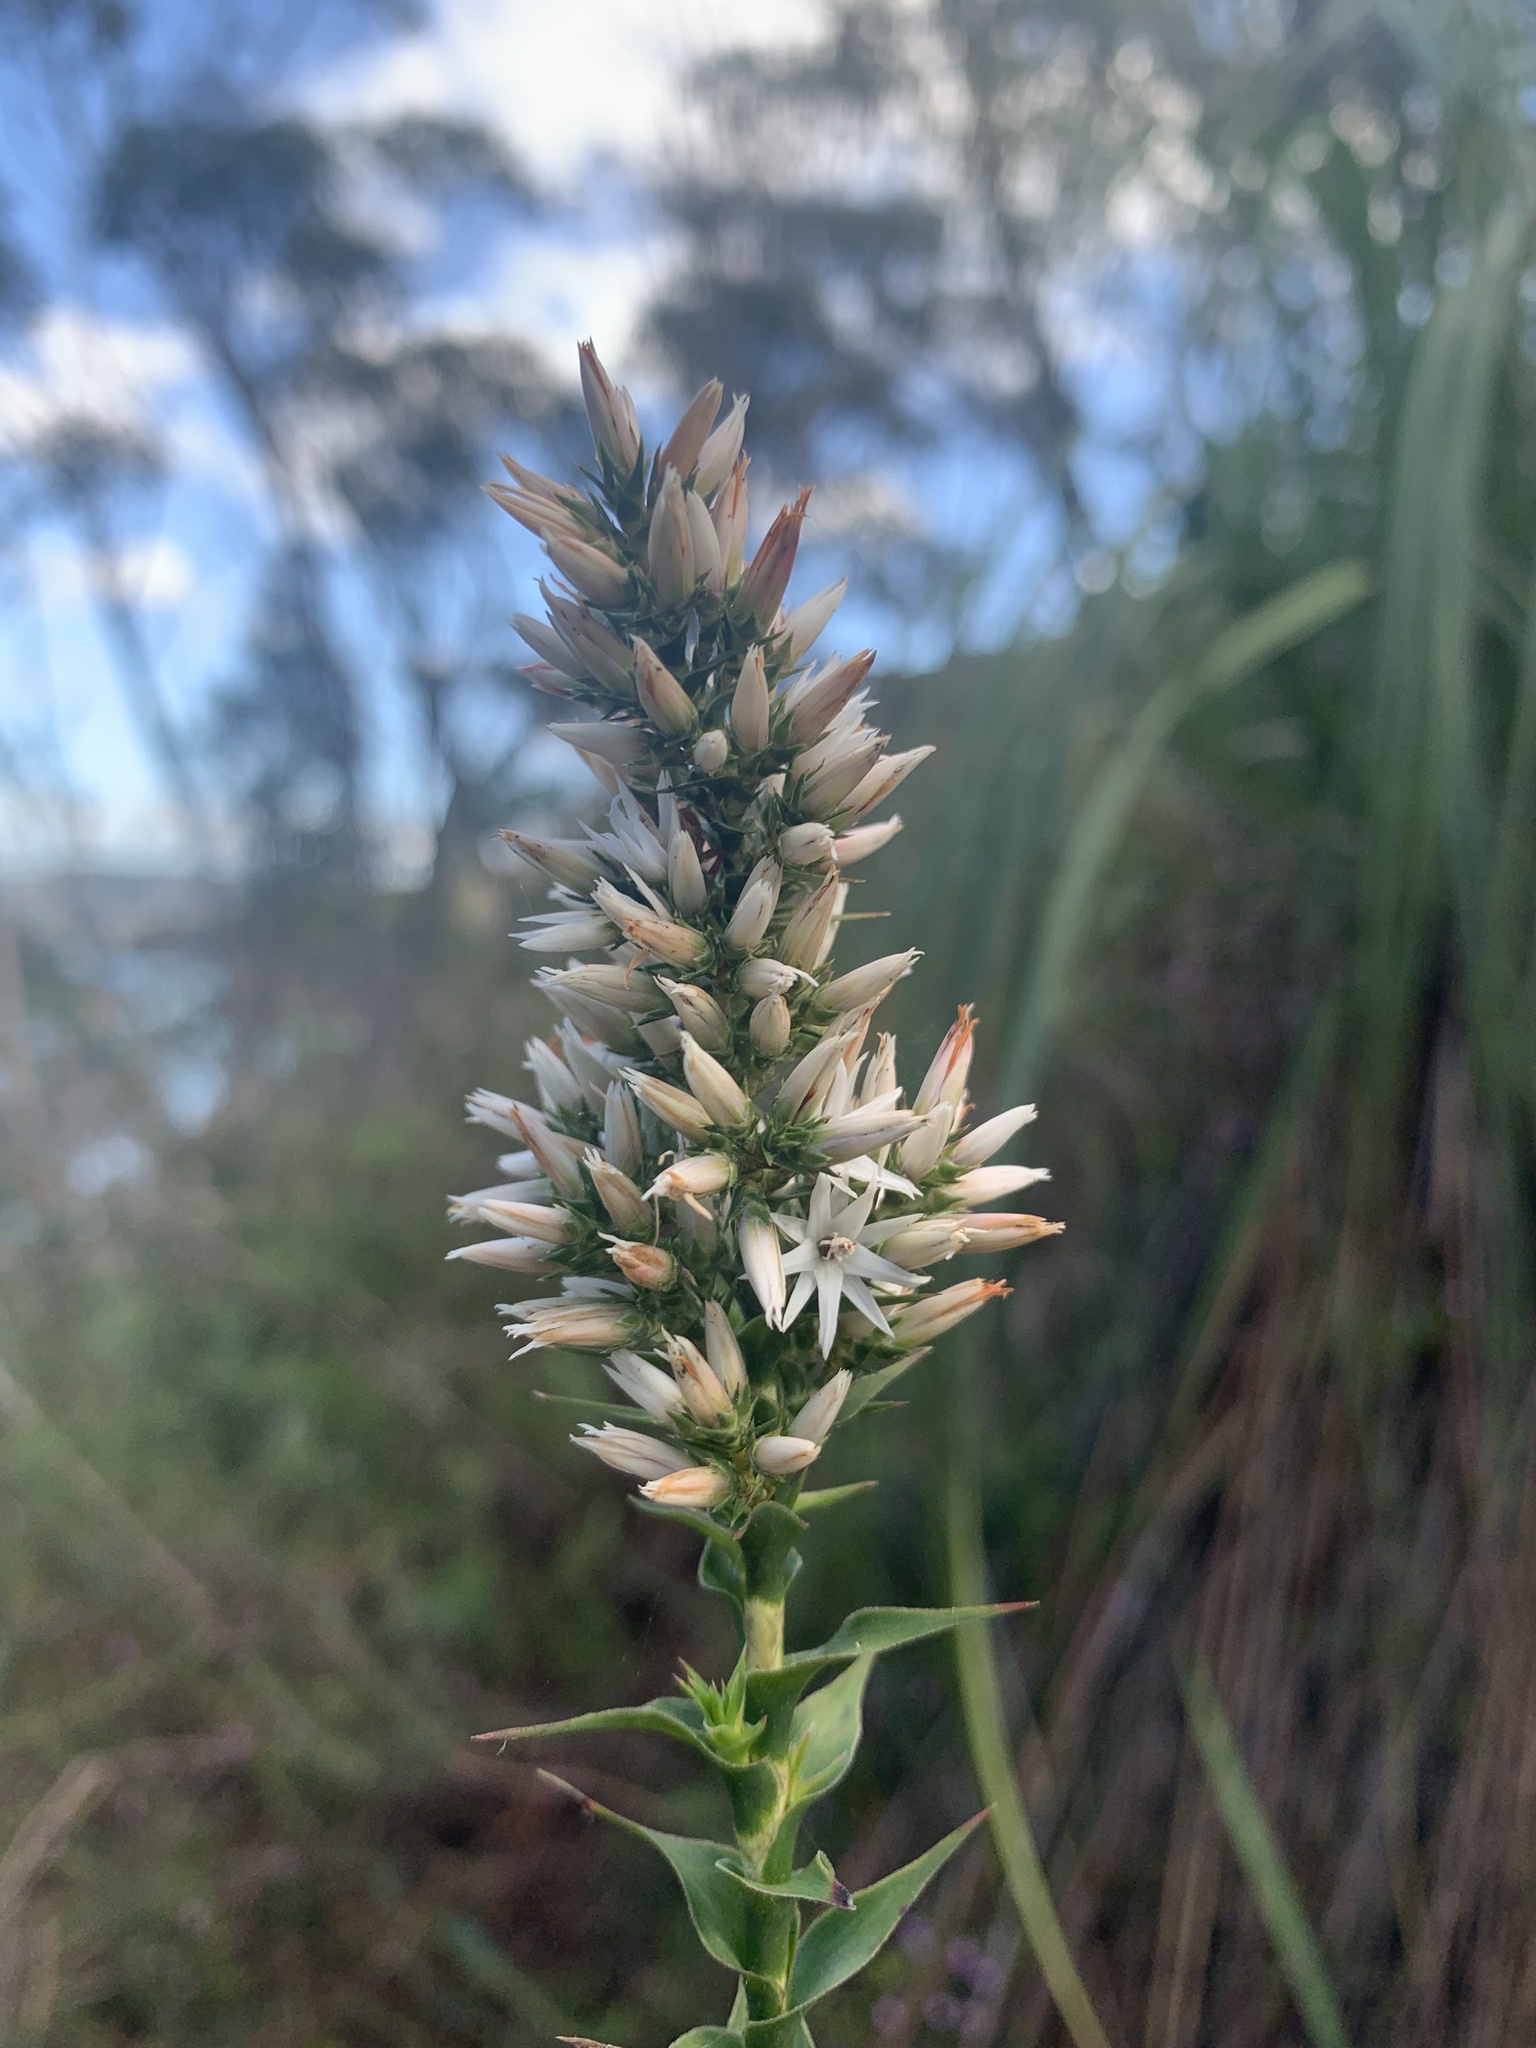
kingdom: Plantae
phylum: Tracheophyta
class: Magnoliopsida
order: Ericales
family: Ericaceae
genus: Sprengelia
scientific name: Sprengelia incarnata
